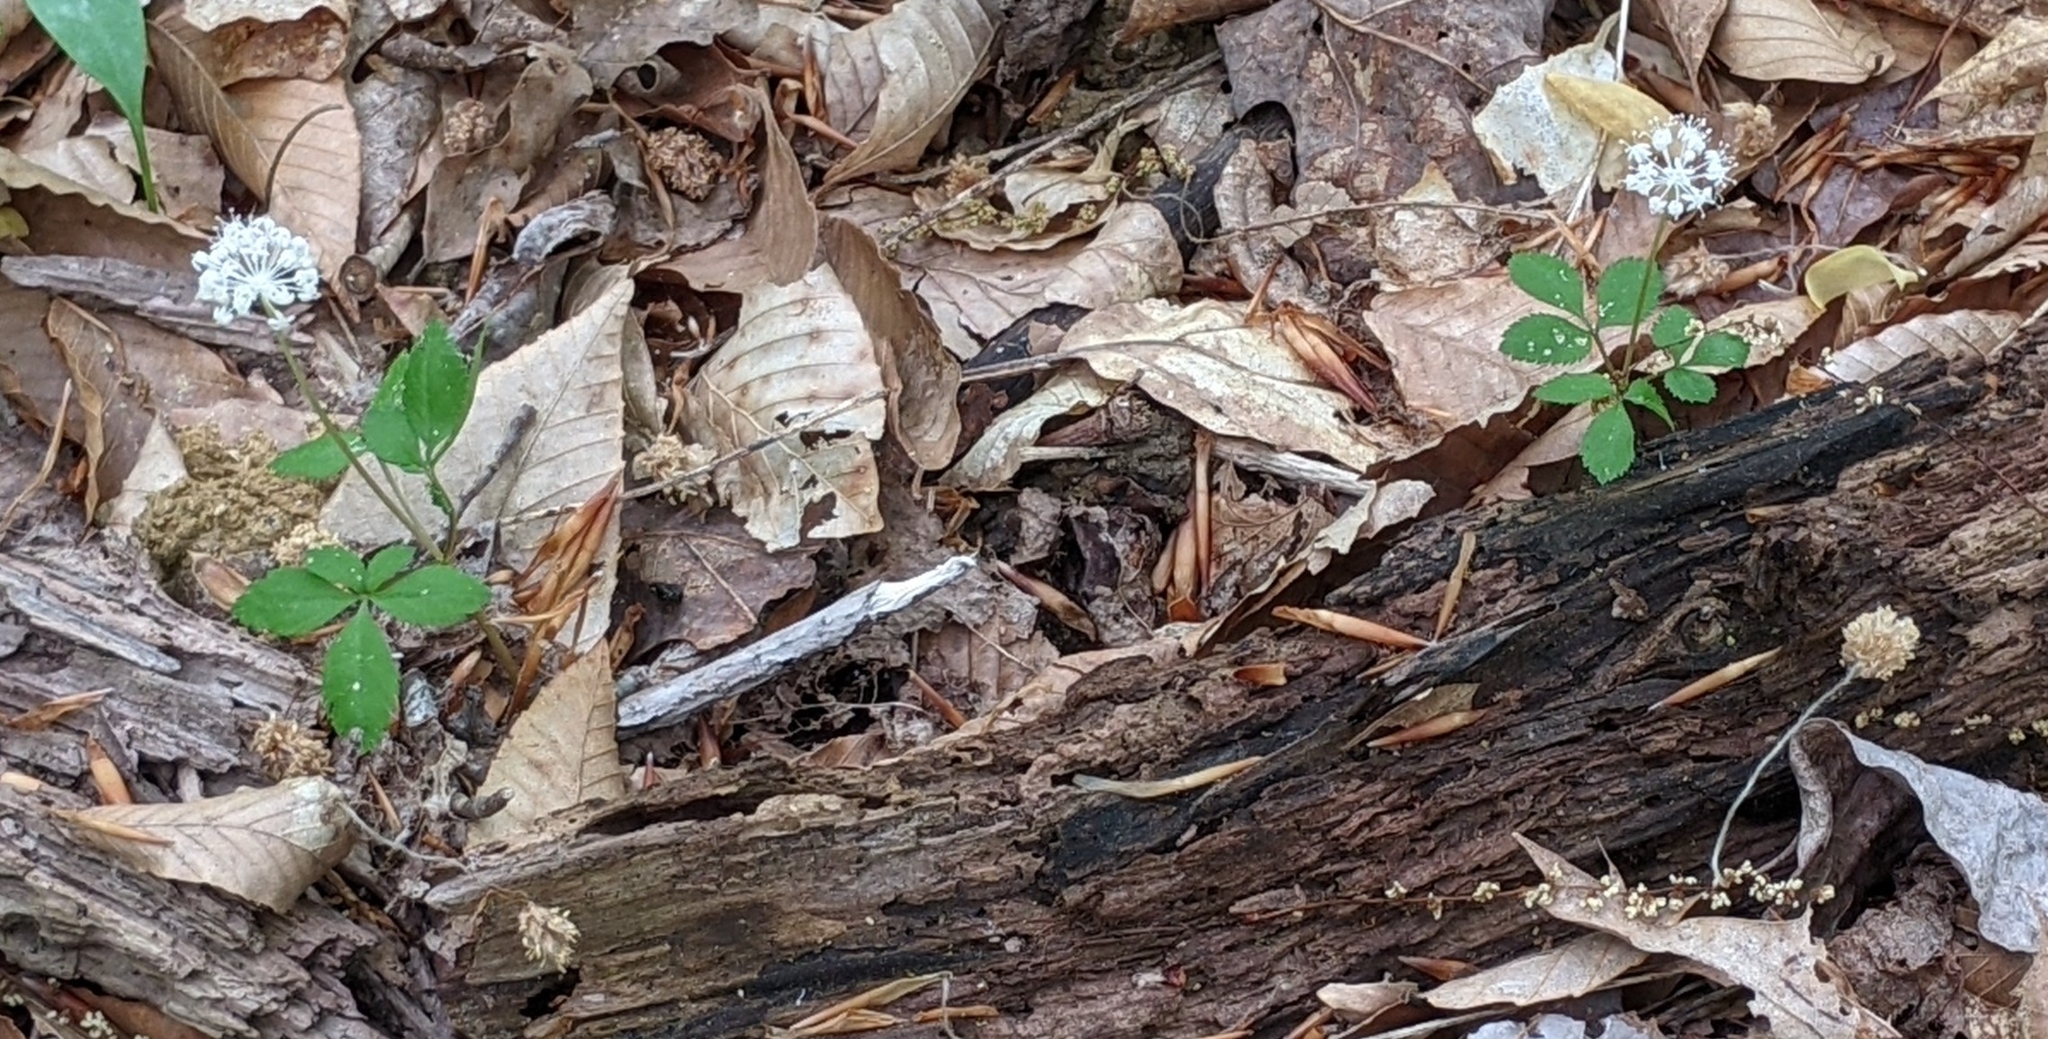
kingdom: Plantae
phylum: Tracheophyta
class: Magnoliopsida
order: Apiales
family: Araliaceae
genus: Panax
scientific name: Panax trifolius
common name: Dwarf ginseng
